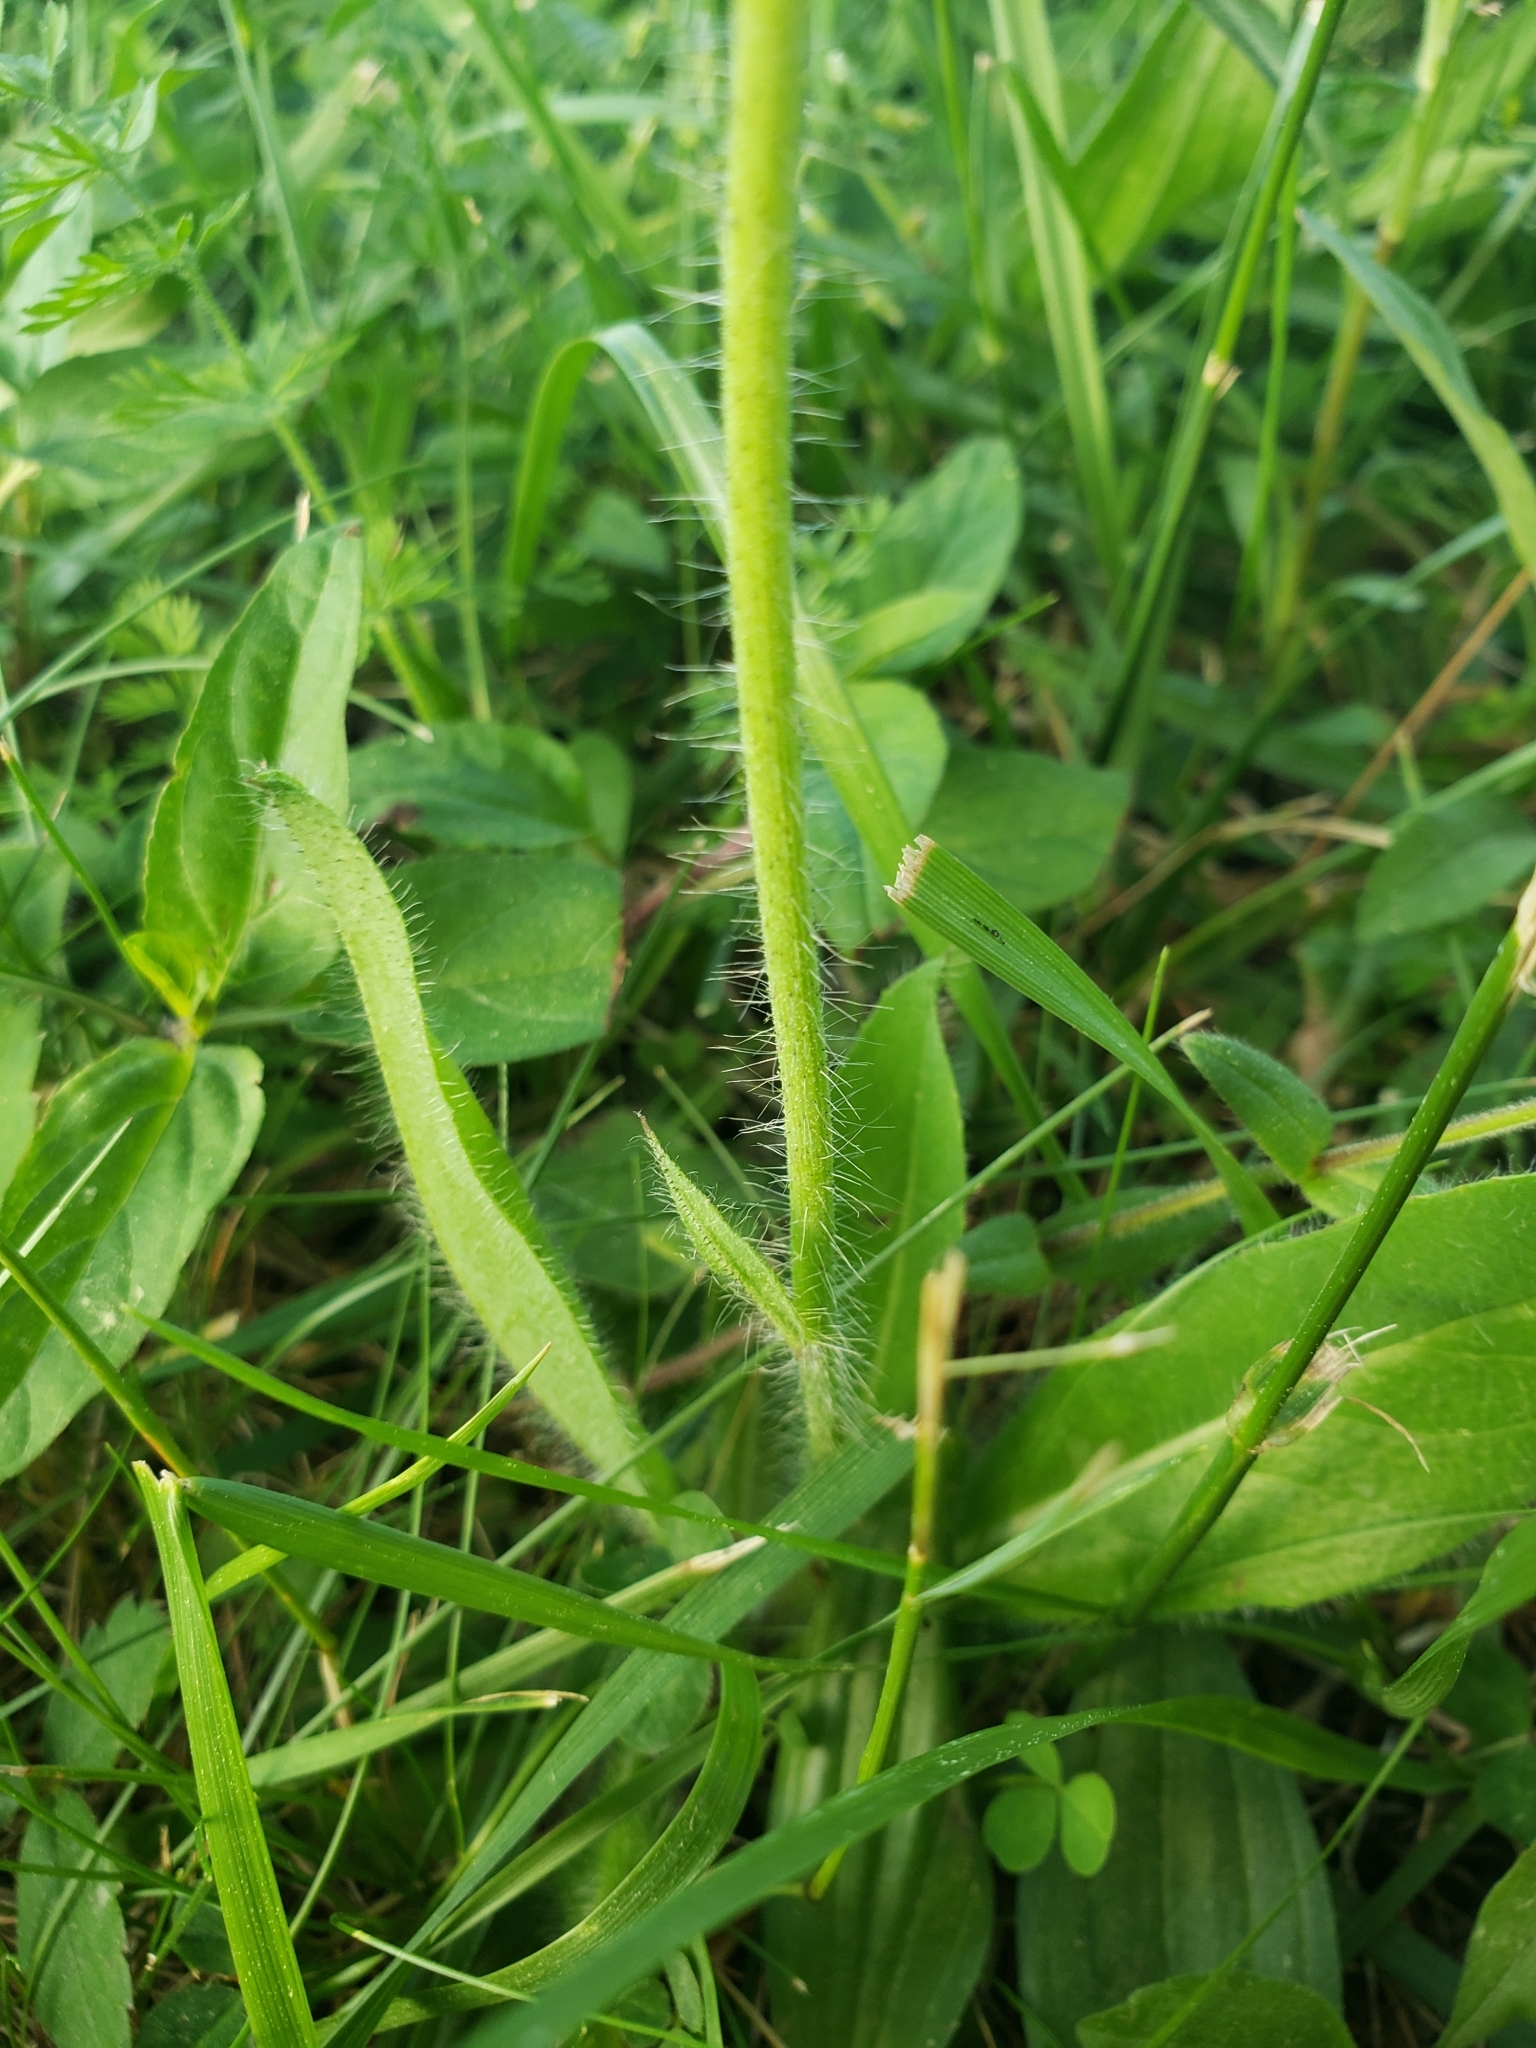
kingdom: Plantae
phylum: Tracheophyta
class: Magnoliopsida
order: Asterales
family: Asteraceae
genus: Pilosella
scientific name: Pilosella aurantiaca
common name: Fox-and-cubs
